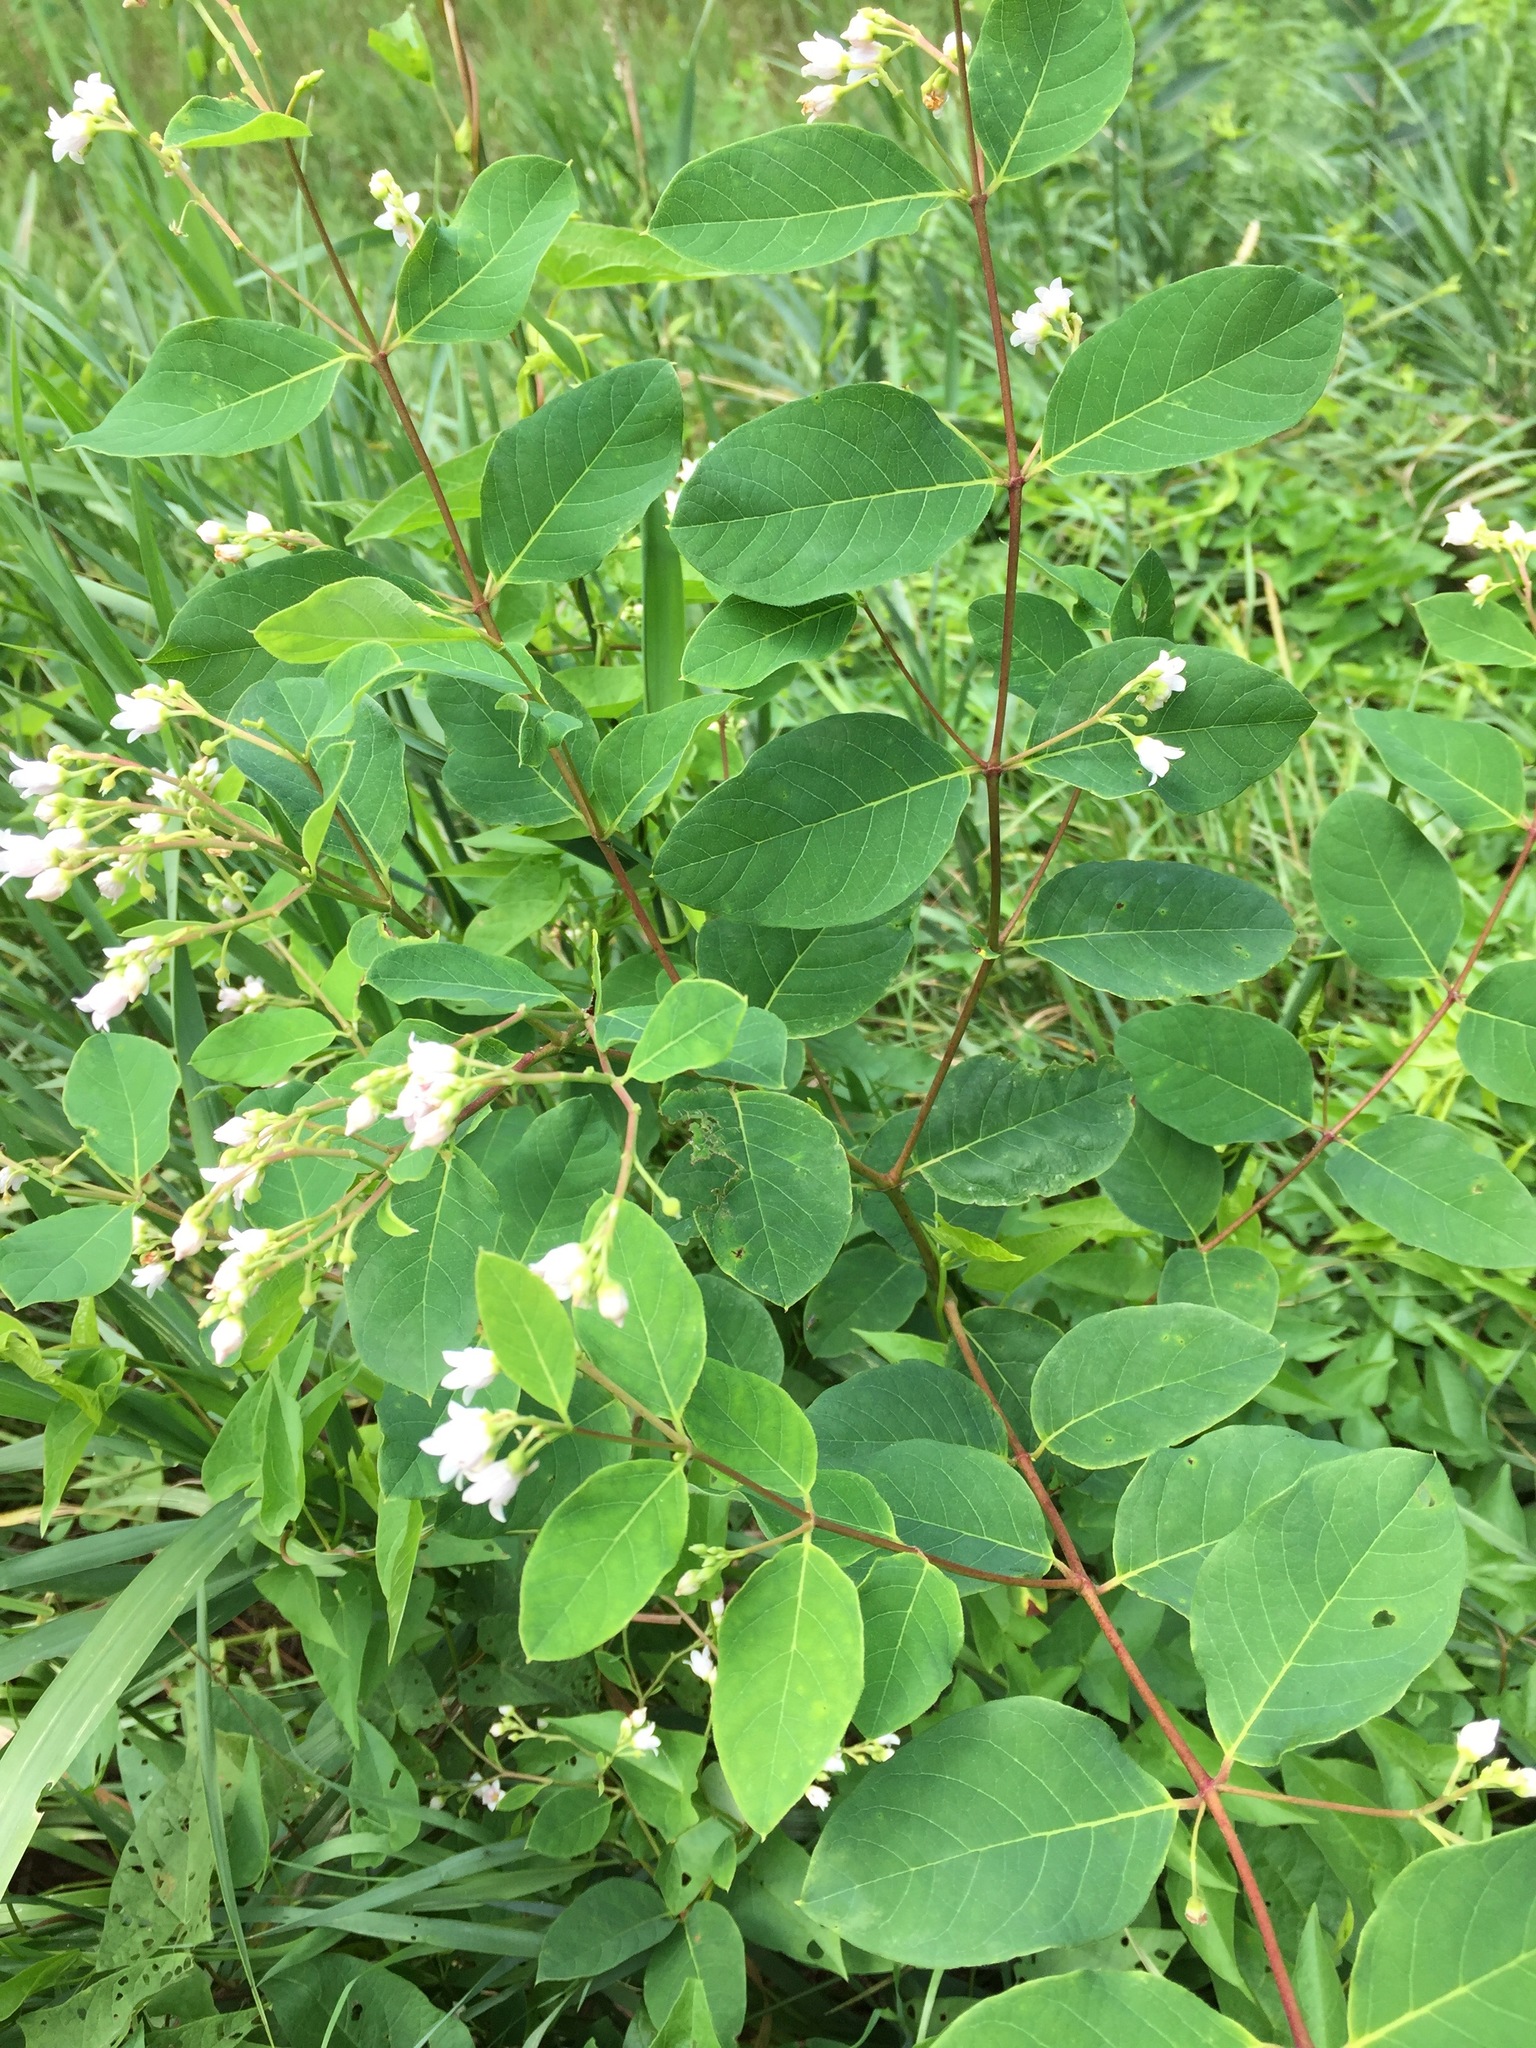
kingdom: Plantae
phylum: Tracheophyta
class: Magnoliopsida
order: Gentianales
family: Apocynaceae
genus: Apocynum
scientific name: Apocynum androsaemifolium
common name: Spreading dogbane
